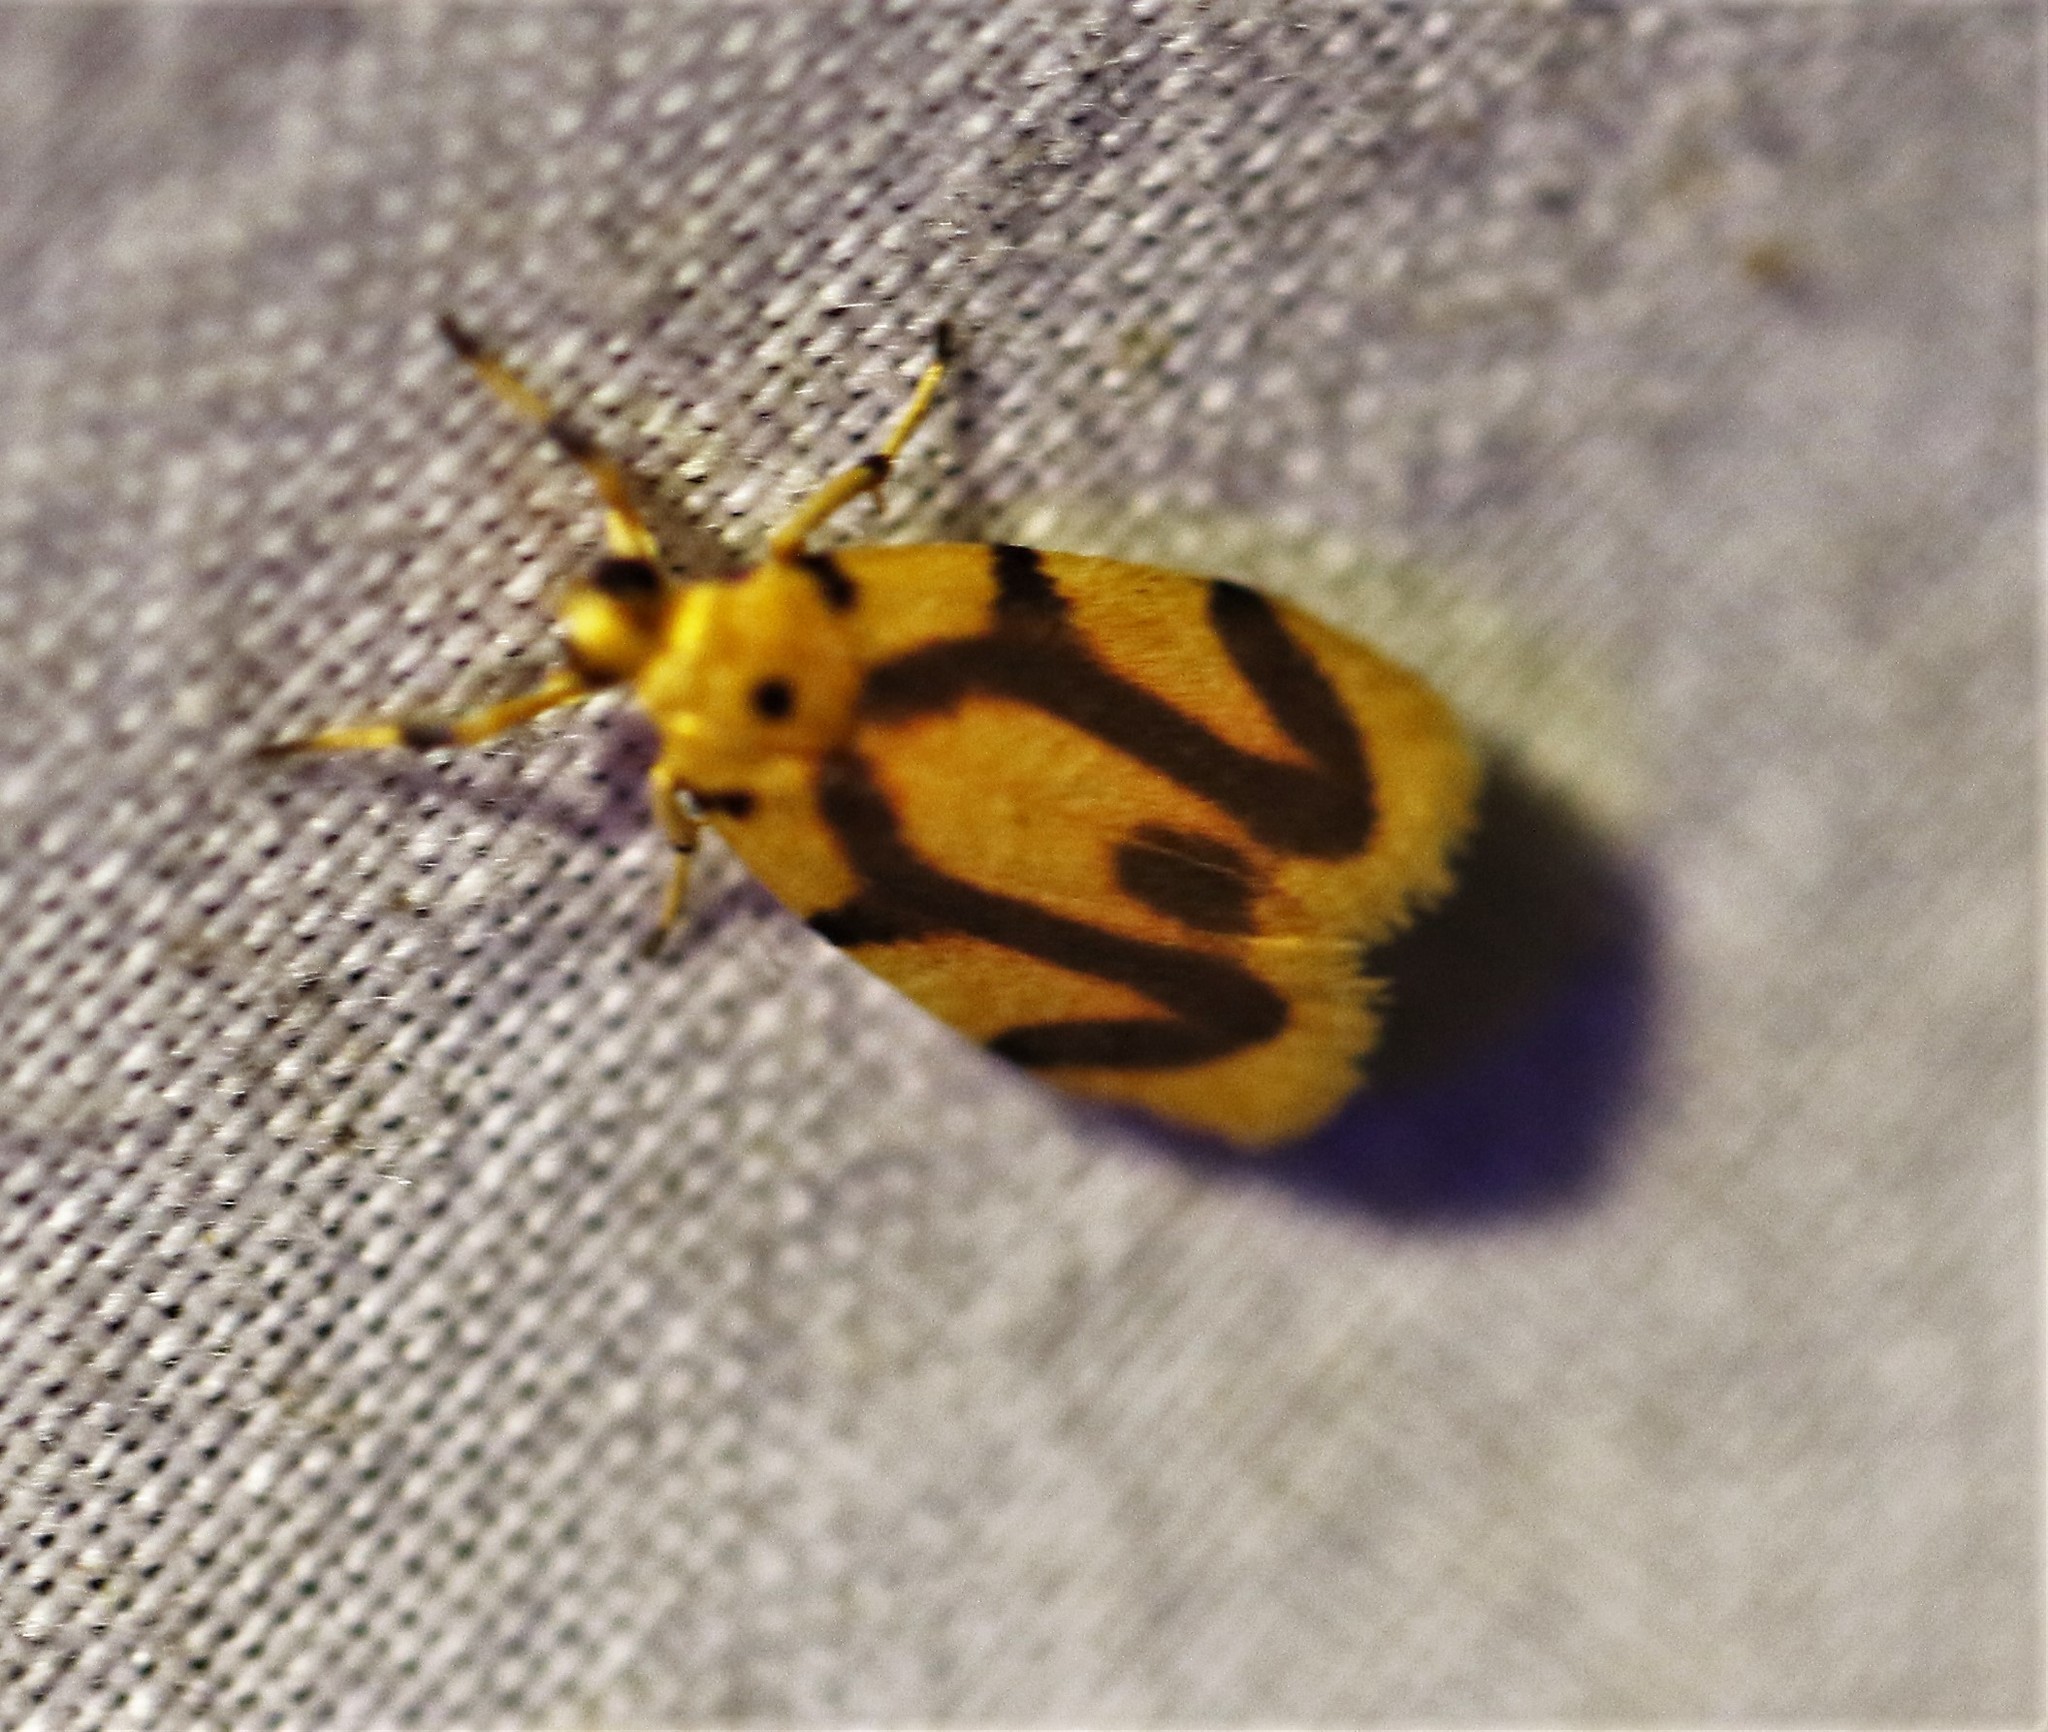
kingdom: Animalia
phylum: Arthropoda
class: Insecta
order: Lepidoptera
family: Erebidae
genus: Gaudeator
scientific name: Gaudeator paidicus
